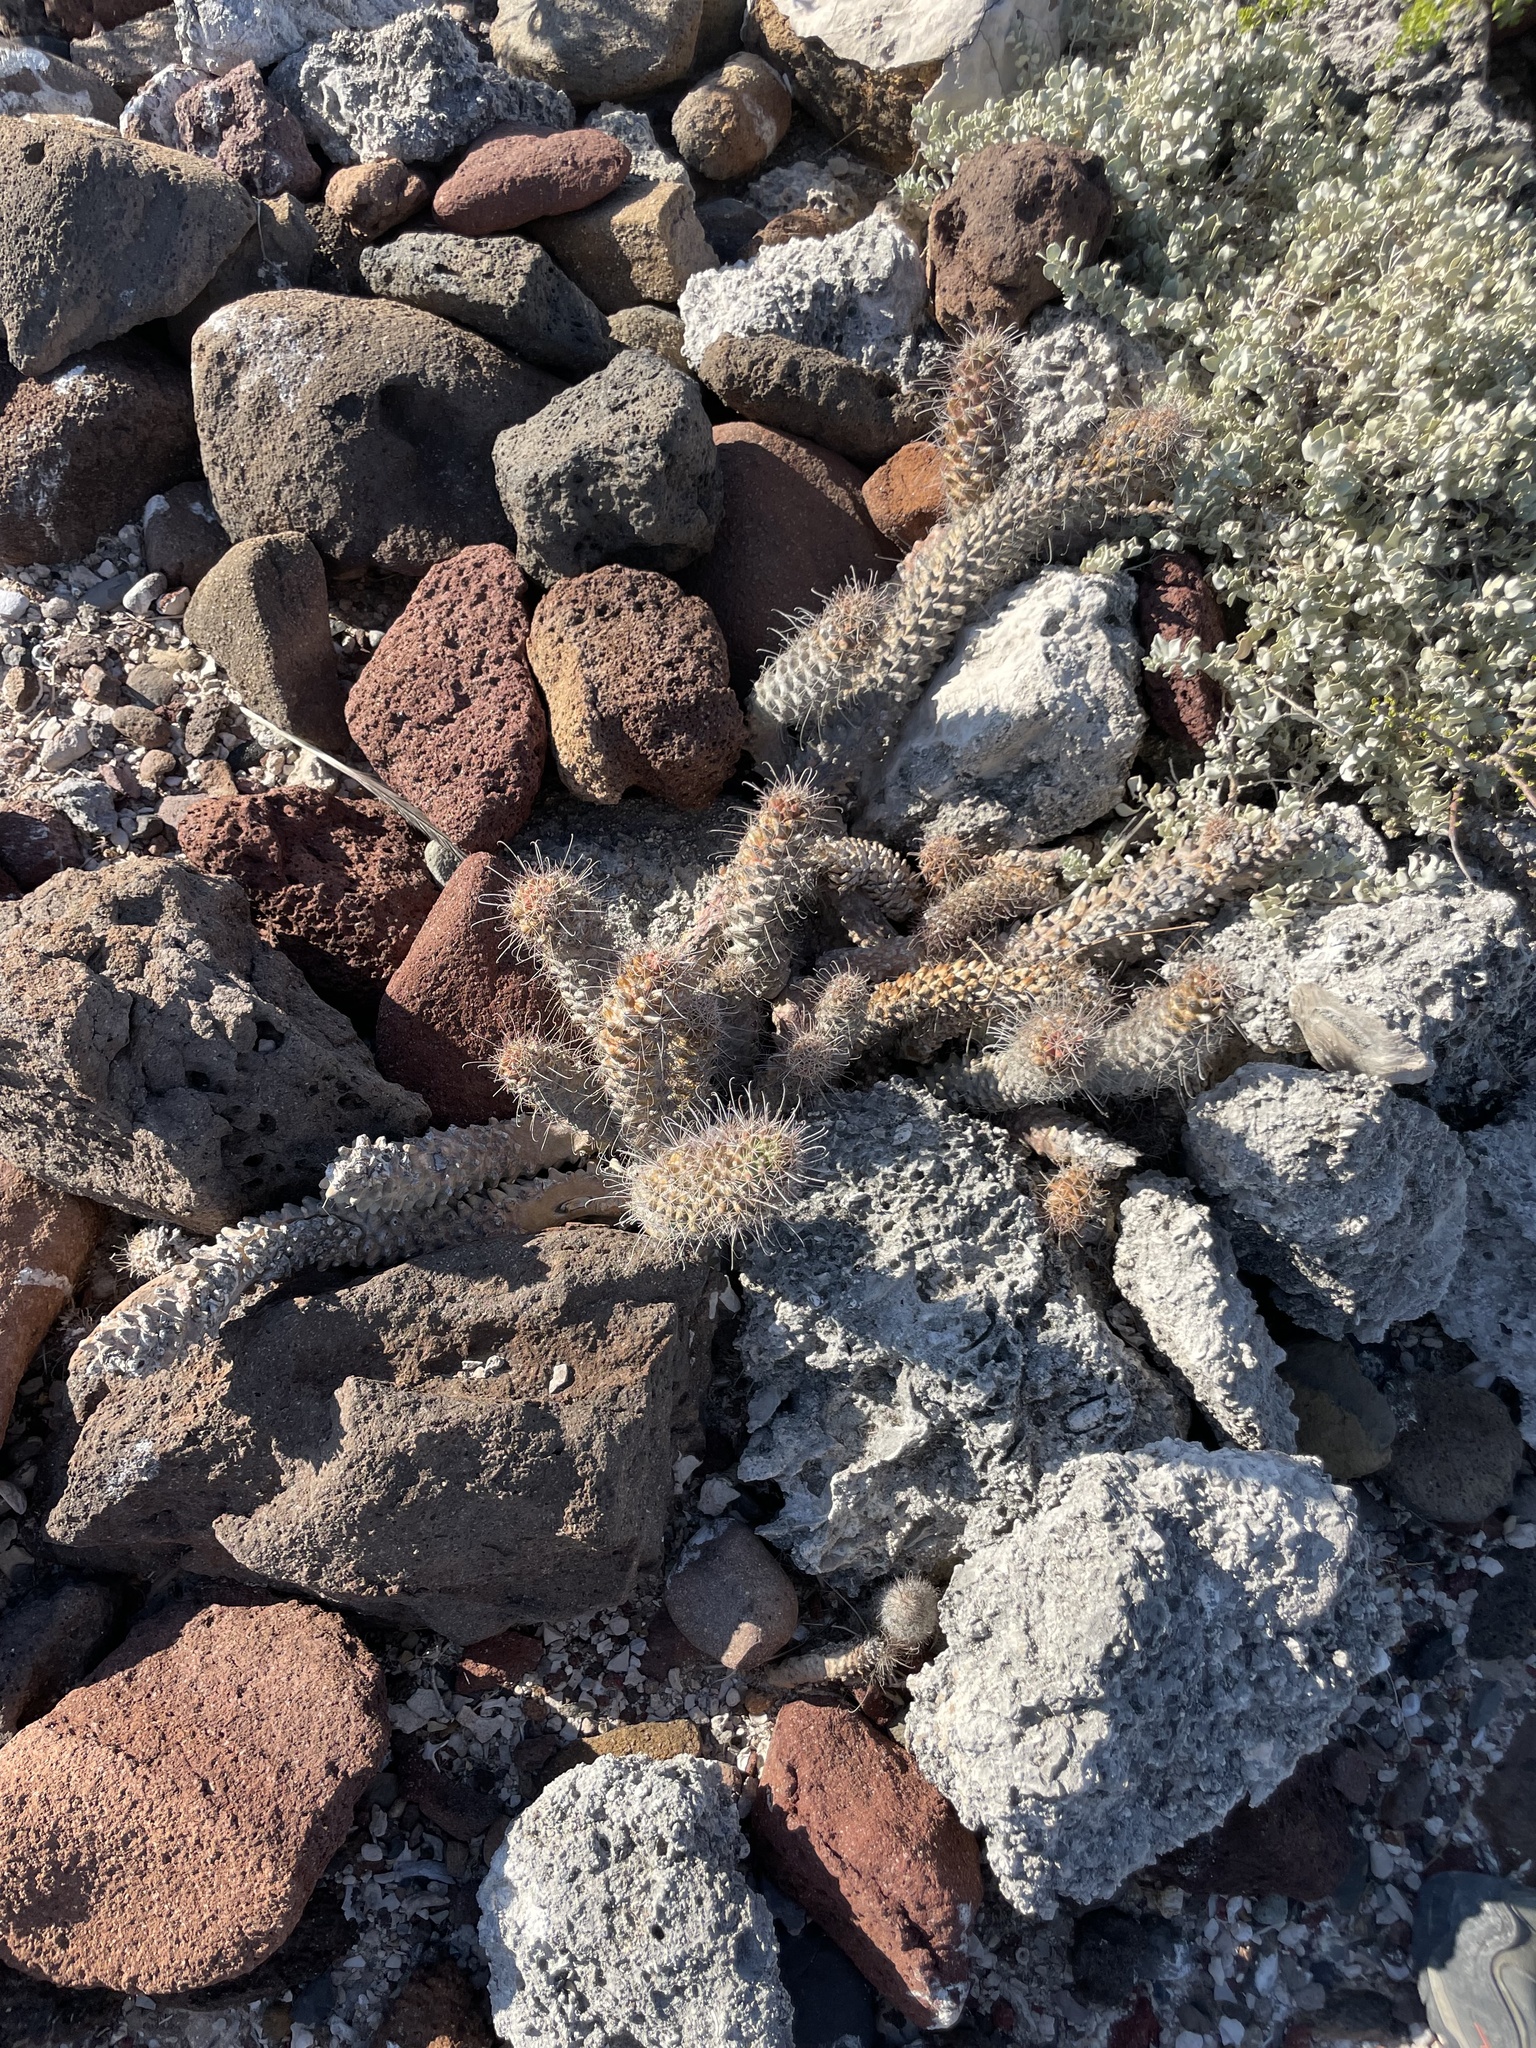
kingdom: Plantae
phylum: Tracheophyta
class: Magnoliopsida
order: Caryophyllales
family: Cactaceae
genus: Cochemiea
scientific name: Cochemiea poselgeri
